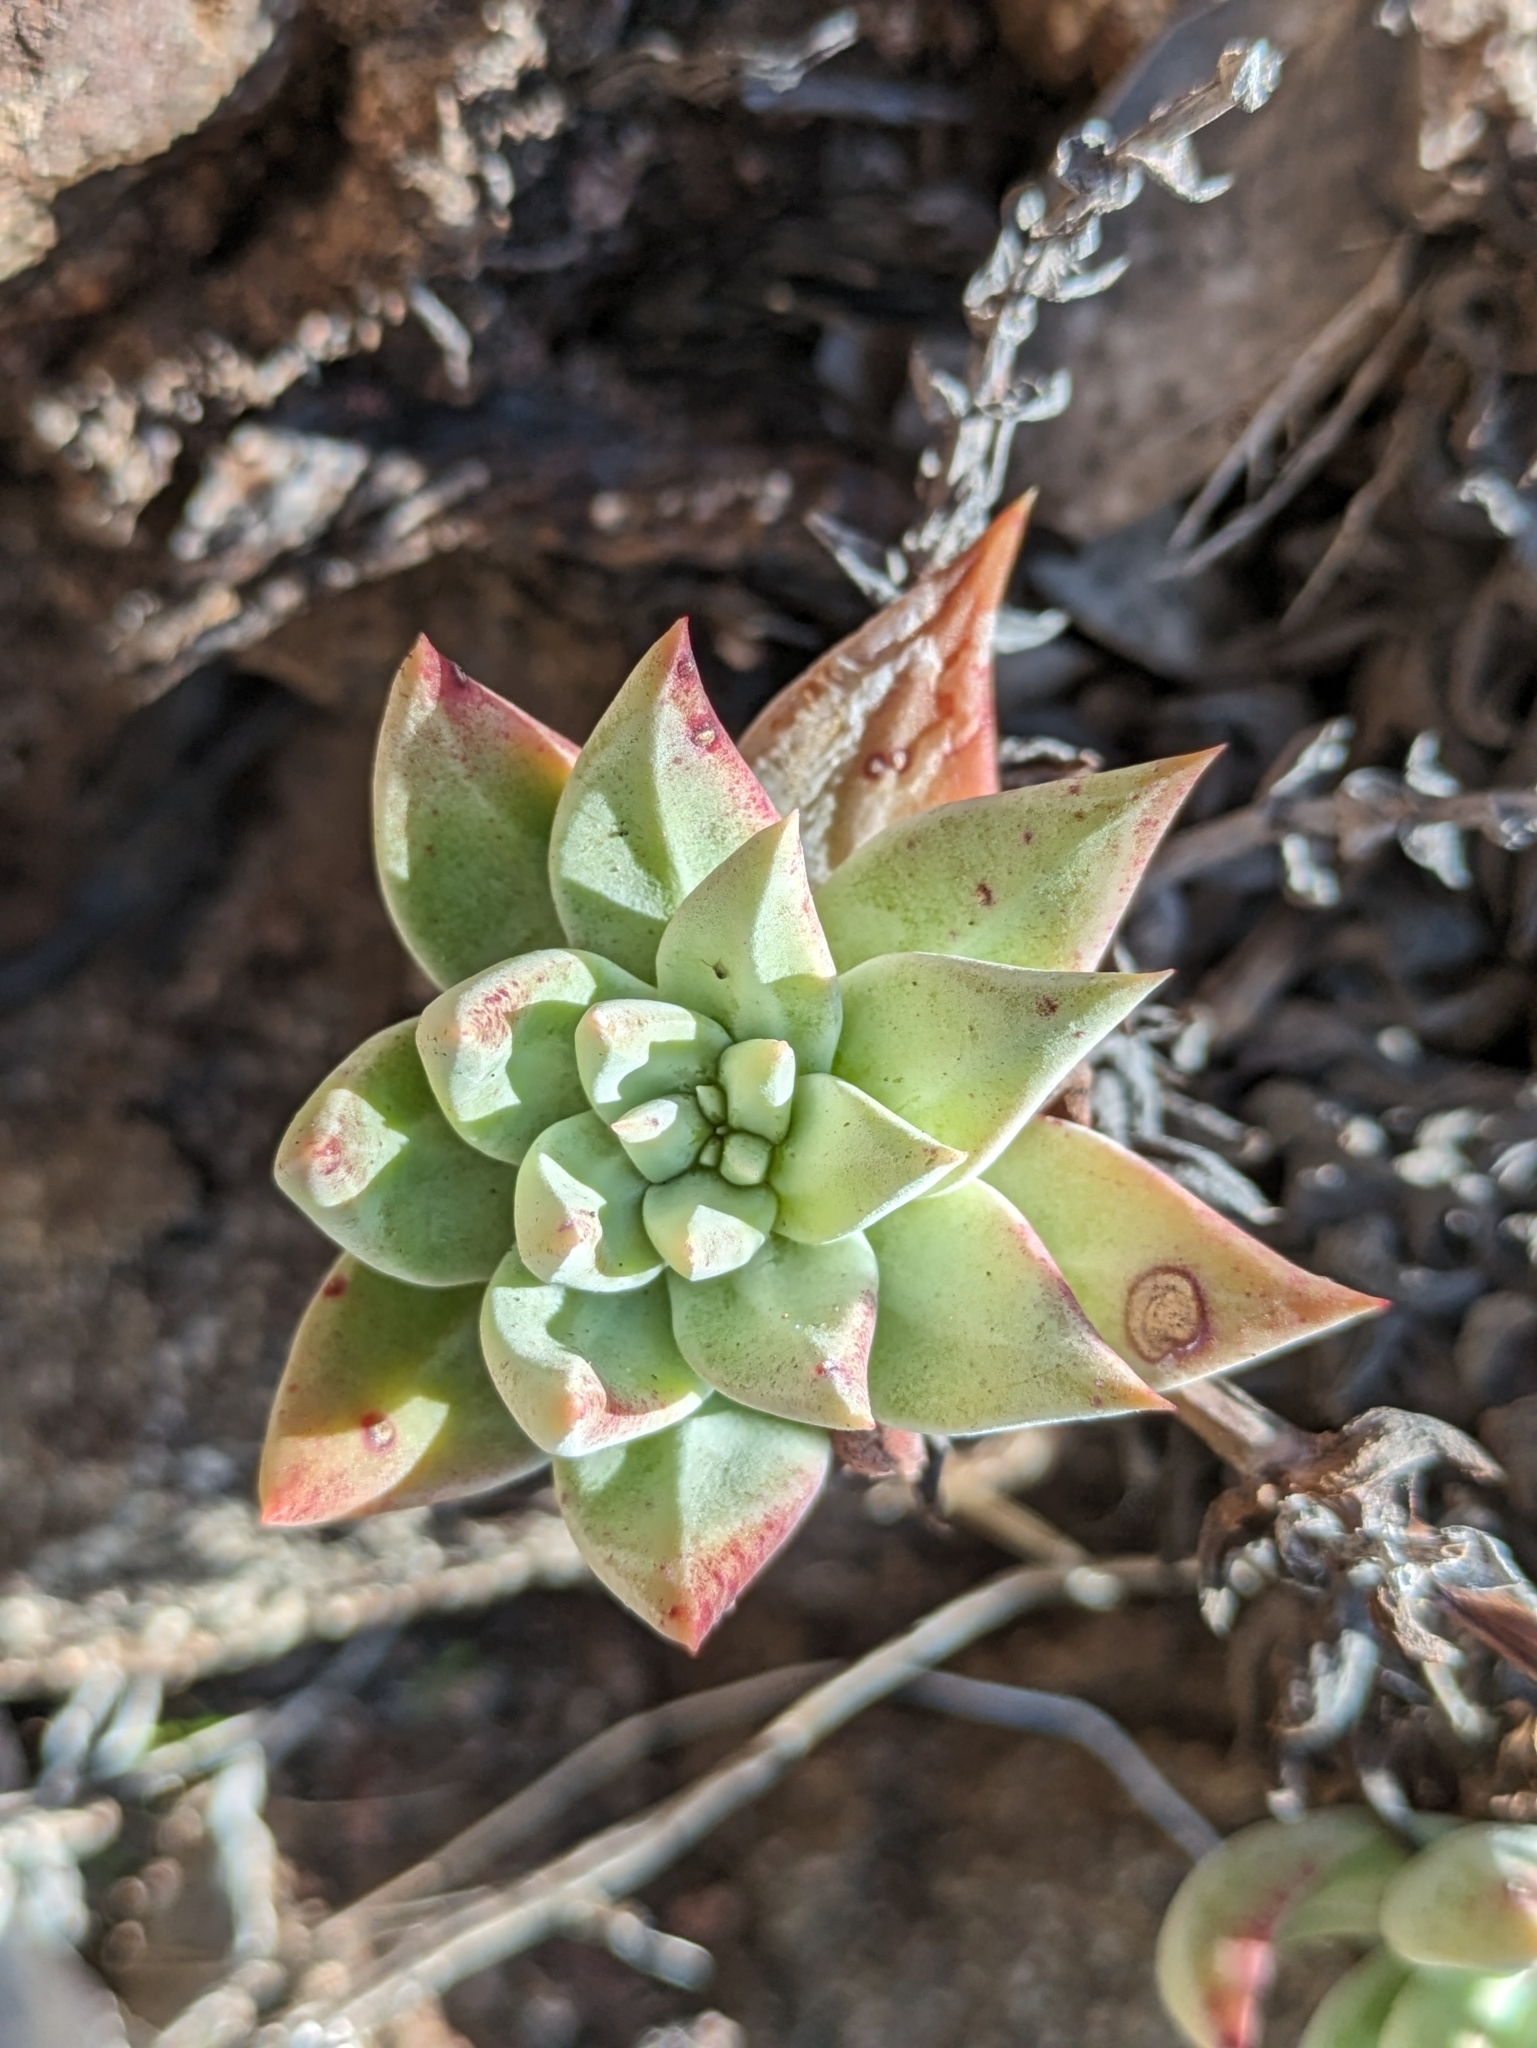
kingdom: Plantae
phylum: Tracheophyta
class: Magnoliopsida
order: Saxifragales
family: Crassulaceae
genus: Dudleya
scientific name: Dudleya campanulata
